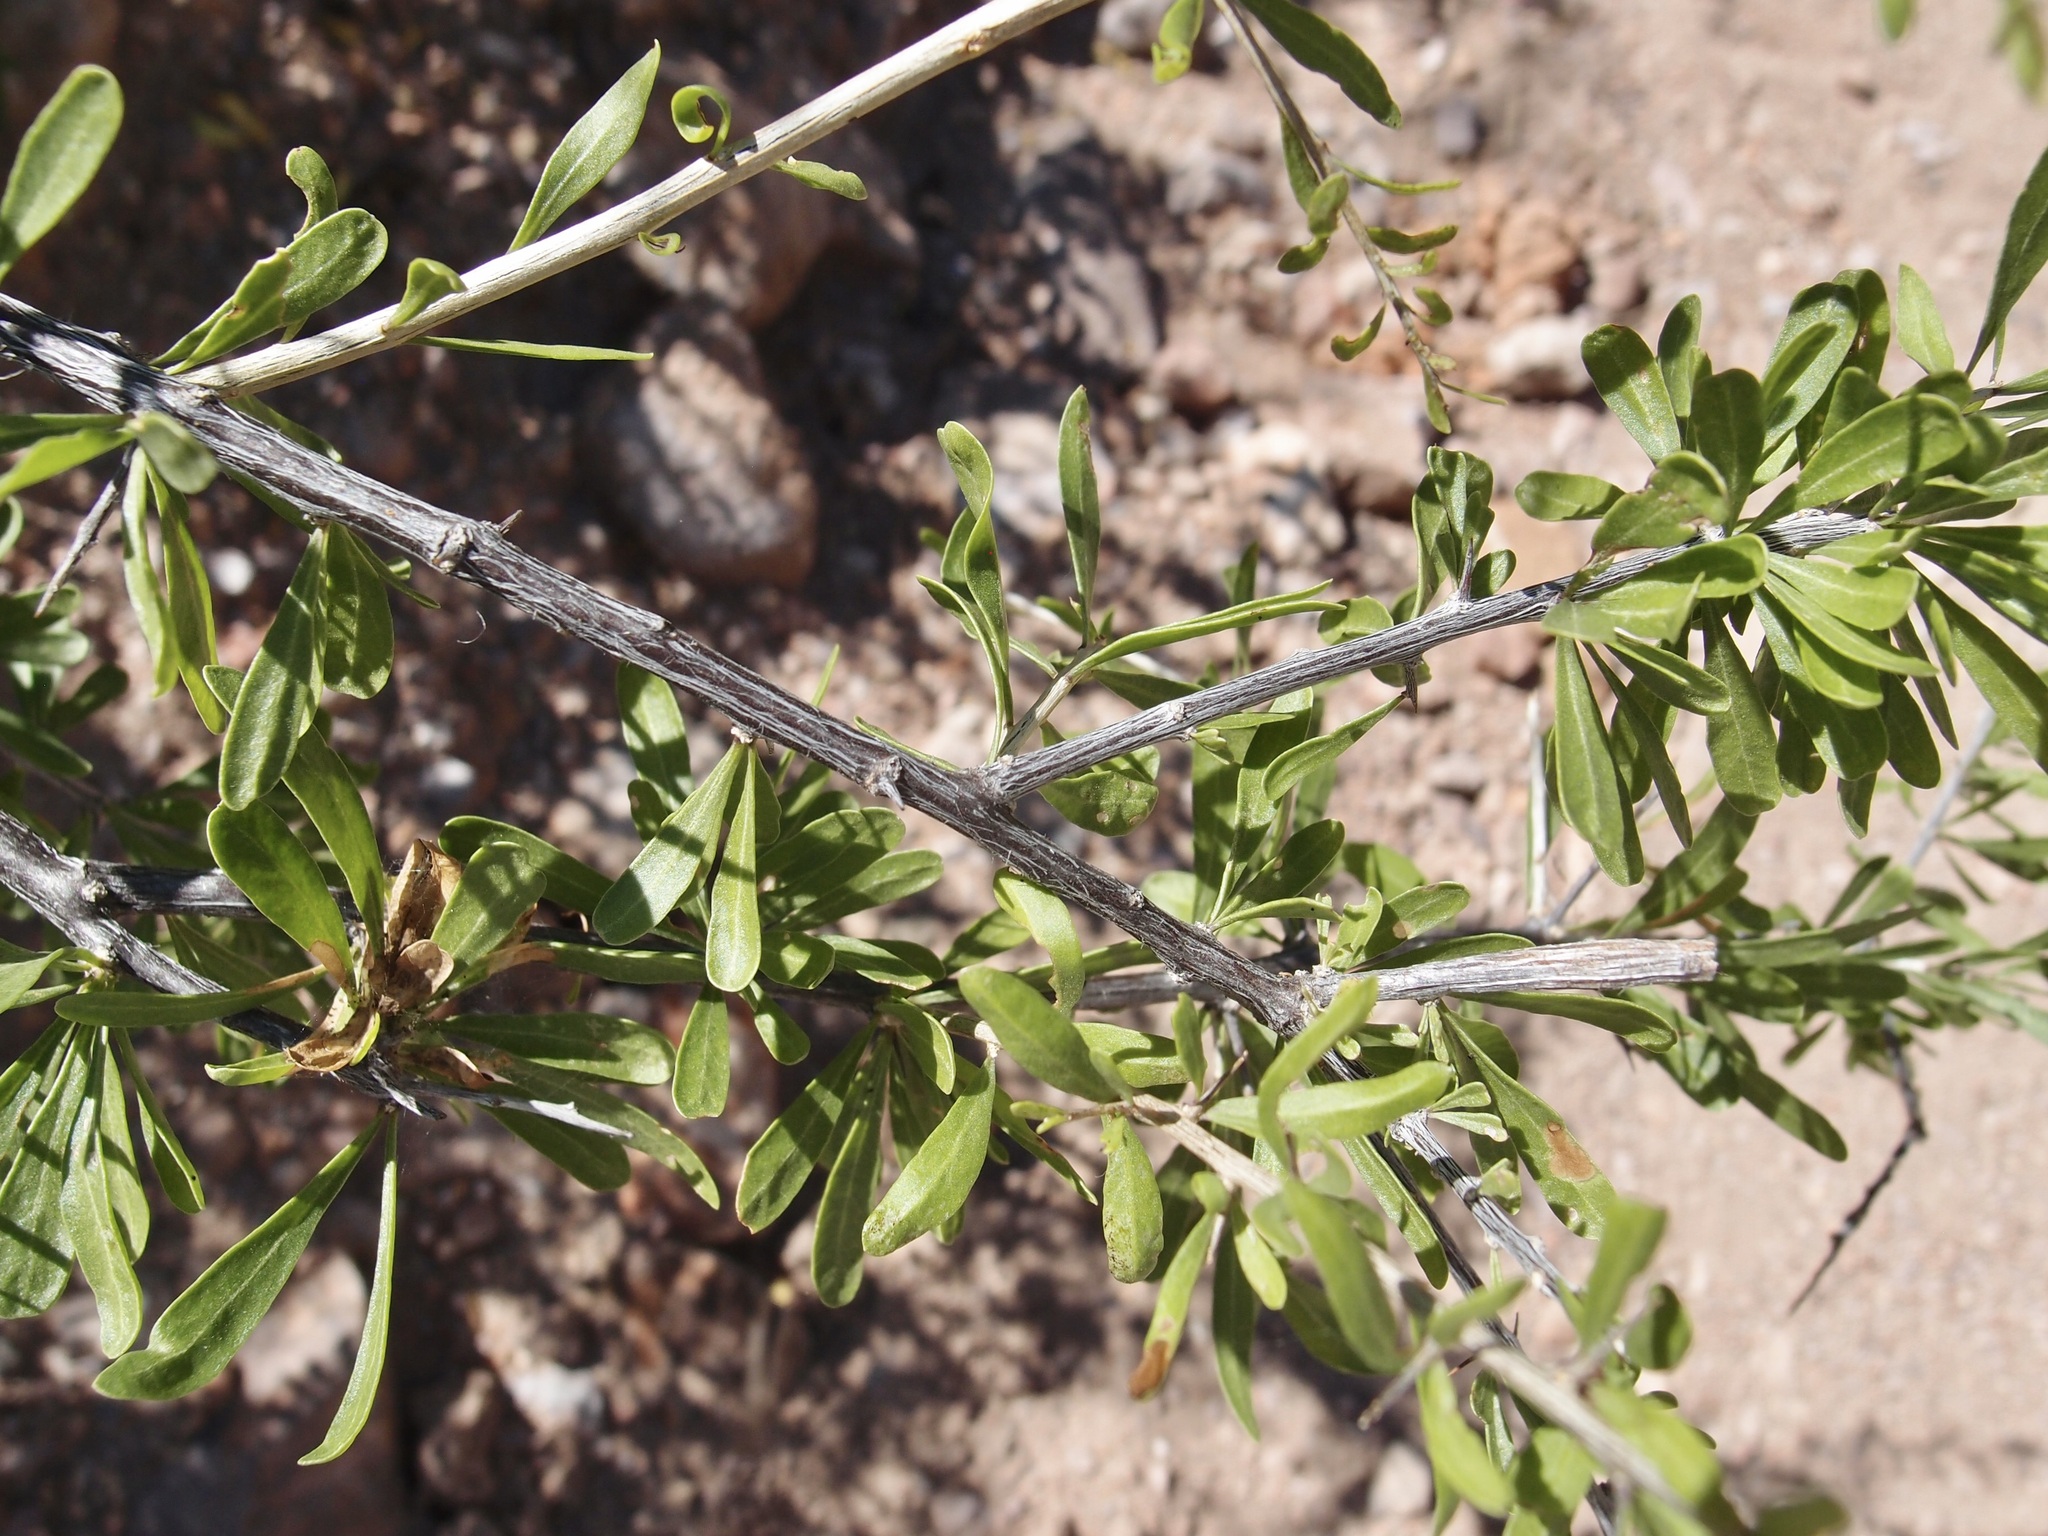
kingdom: Plantae
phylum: Tracheophyta
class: Magnoliopsida
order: Solanales
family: Solanaceae
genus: Lycium
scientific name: Lycium berlandieri
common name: Berlandier wolfberry
